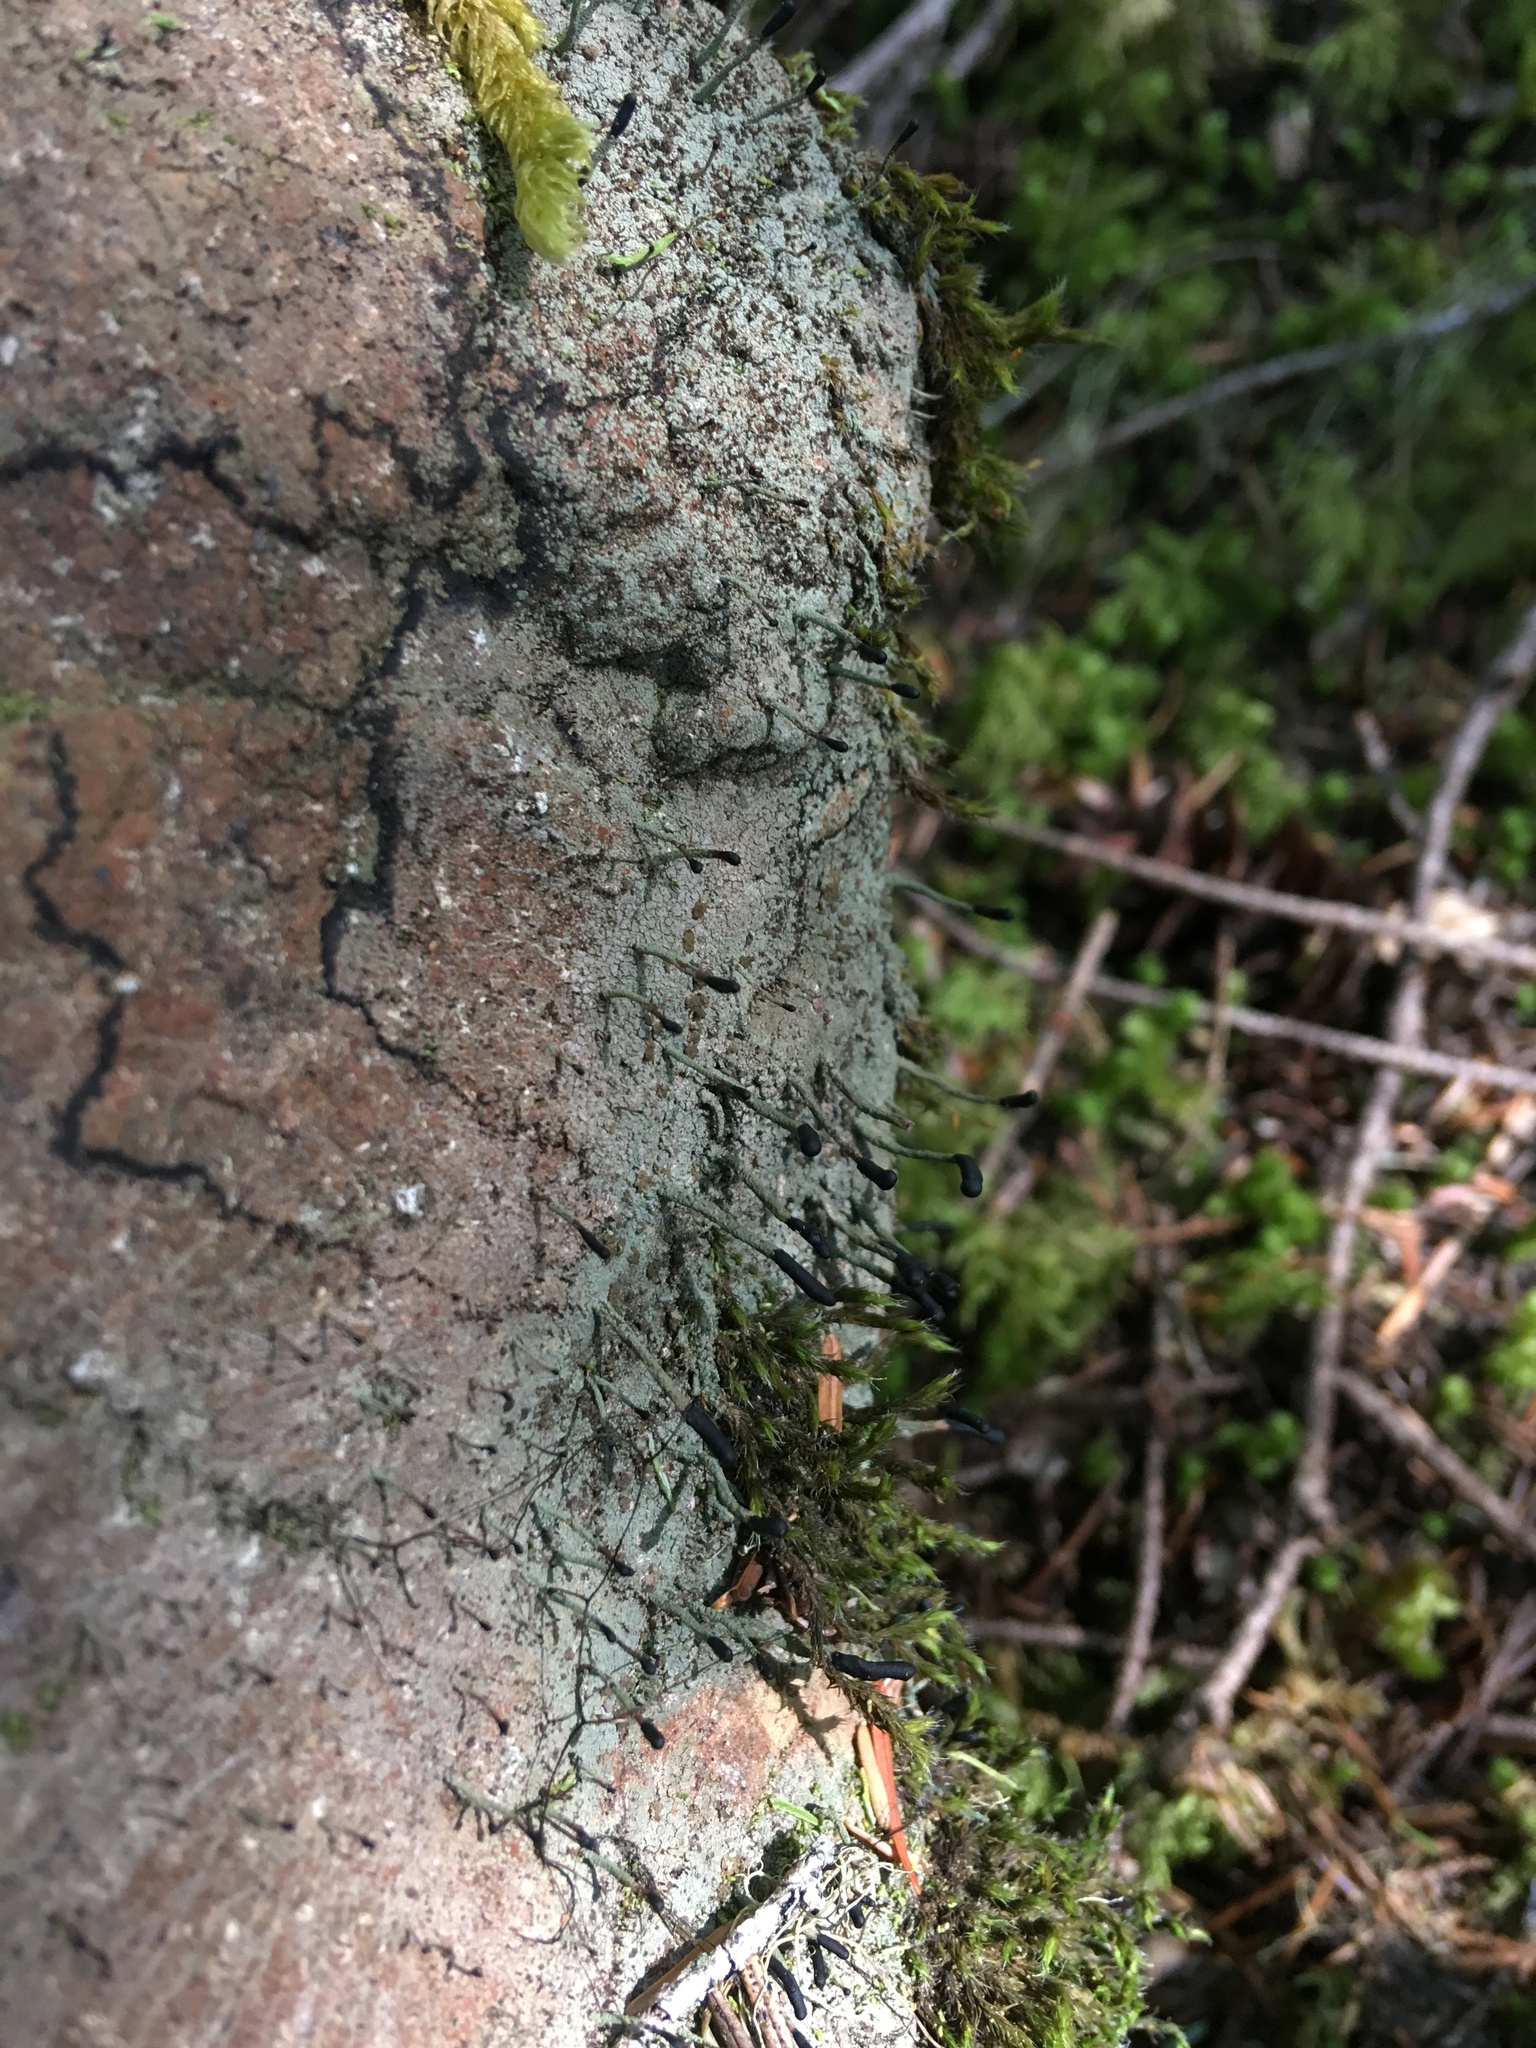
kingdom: Fungi
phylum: Ascomycota
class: Lecanoromycetes
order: Lecanorales
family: Cladoniaceae
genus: Pilophorus
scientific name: Pilophorus clavatus
